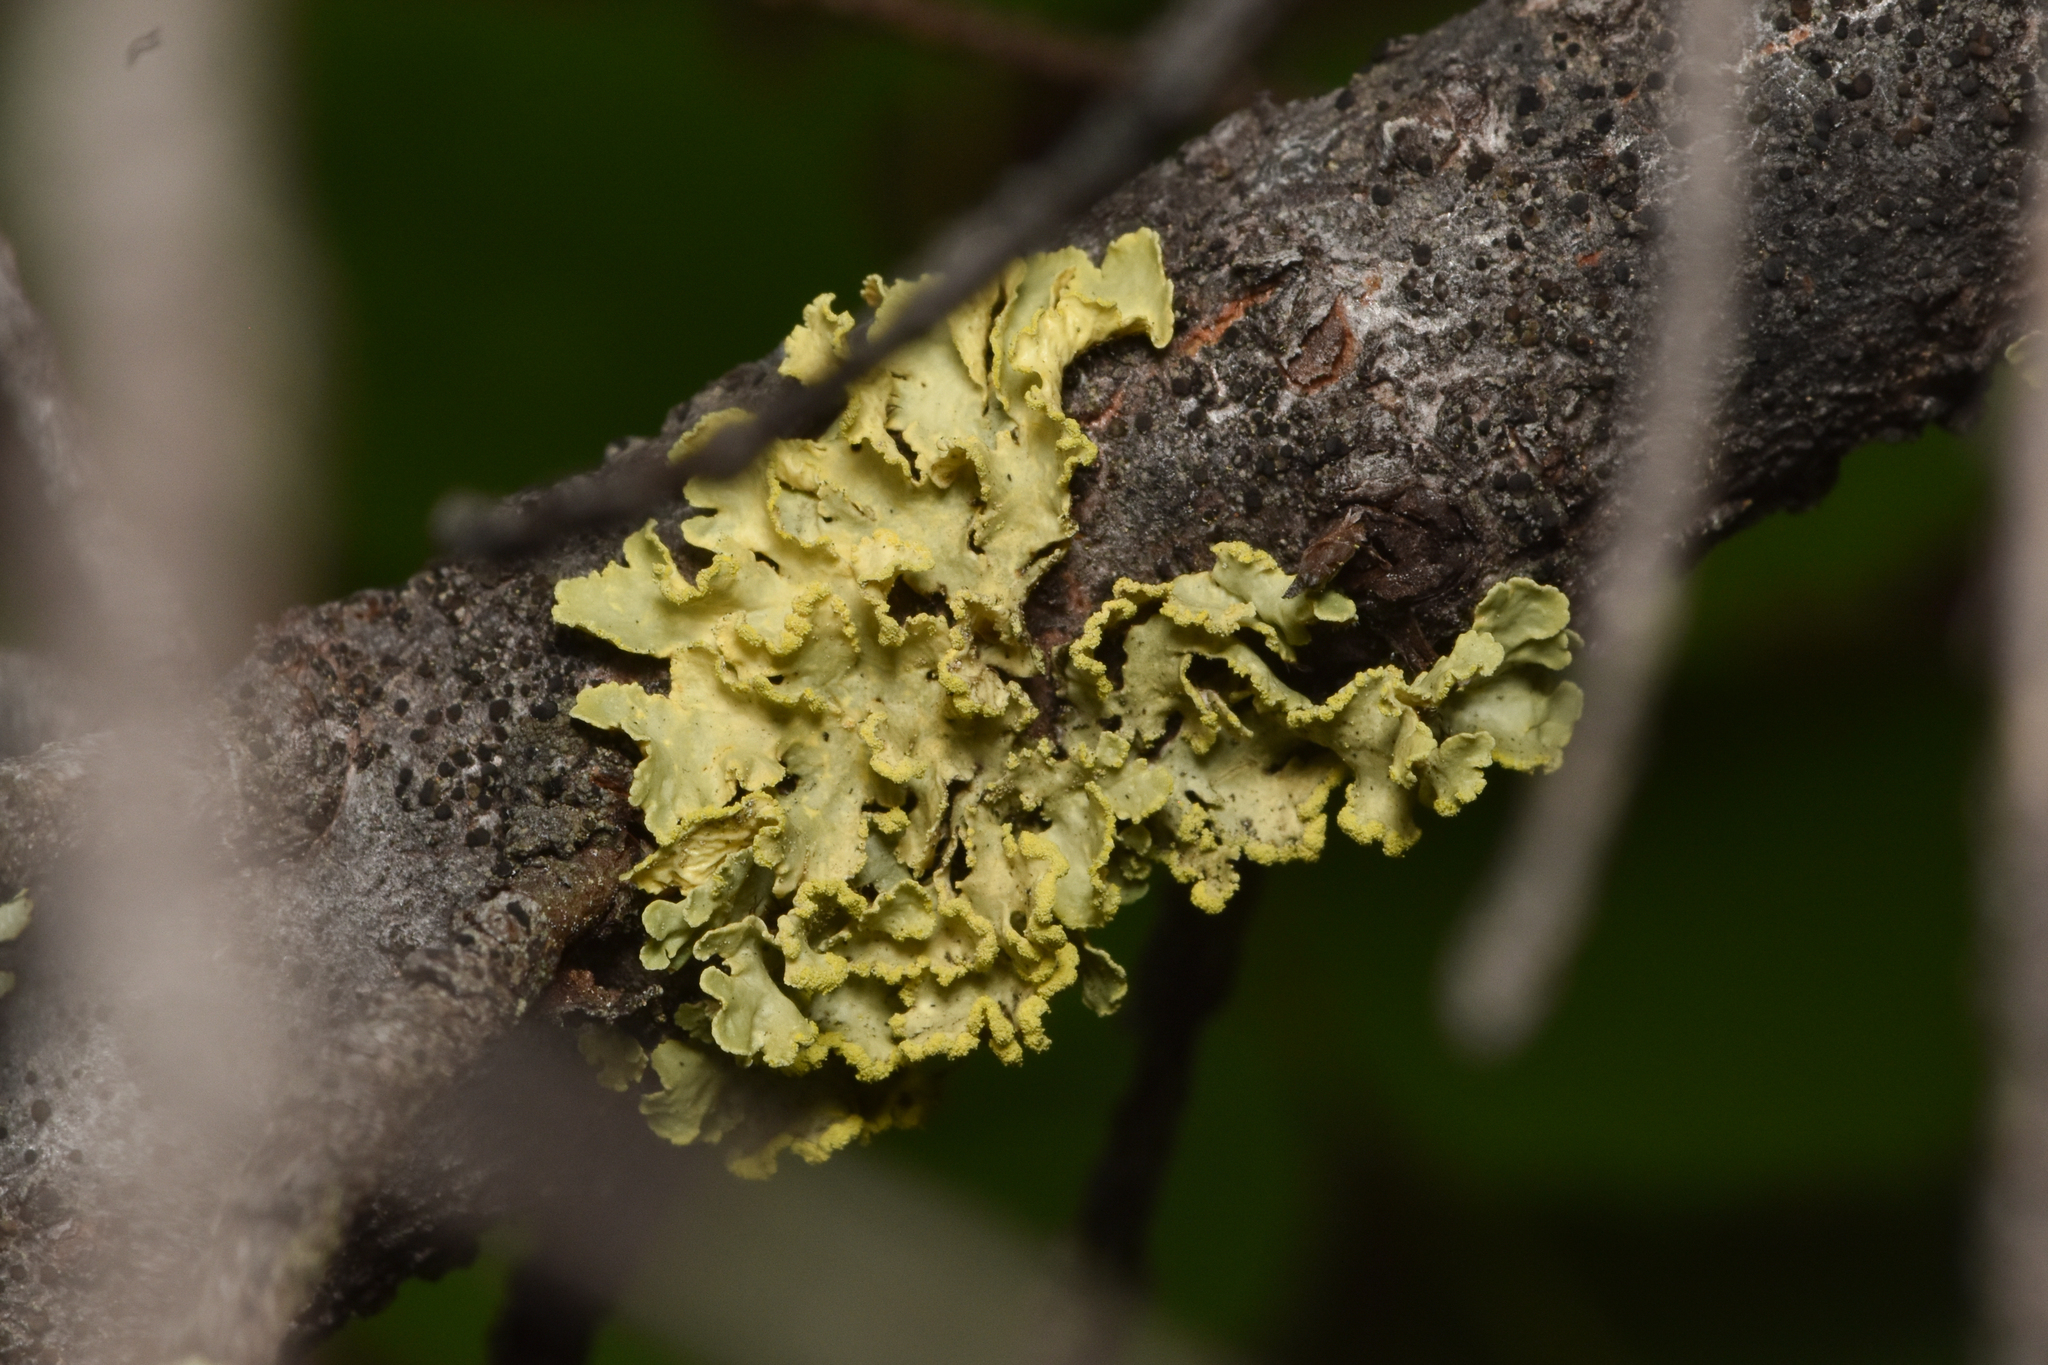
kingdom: Fungi
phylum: Ascomycota
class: Lecanoromycetes
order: Lecanorales
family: Parmeliaceae
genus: Vulpicida
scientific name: Vulpicida pinastri
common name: Powdered sunshine lichen
